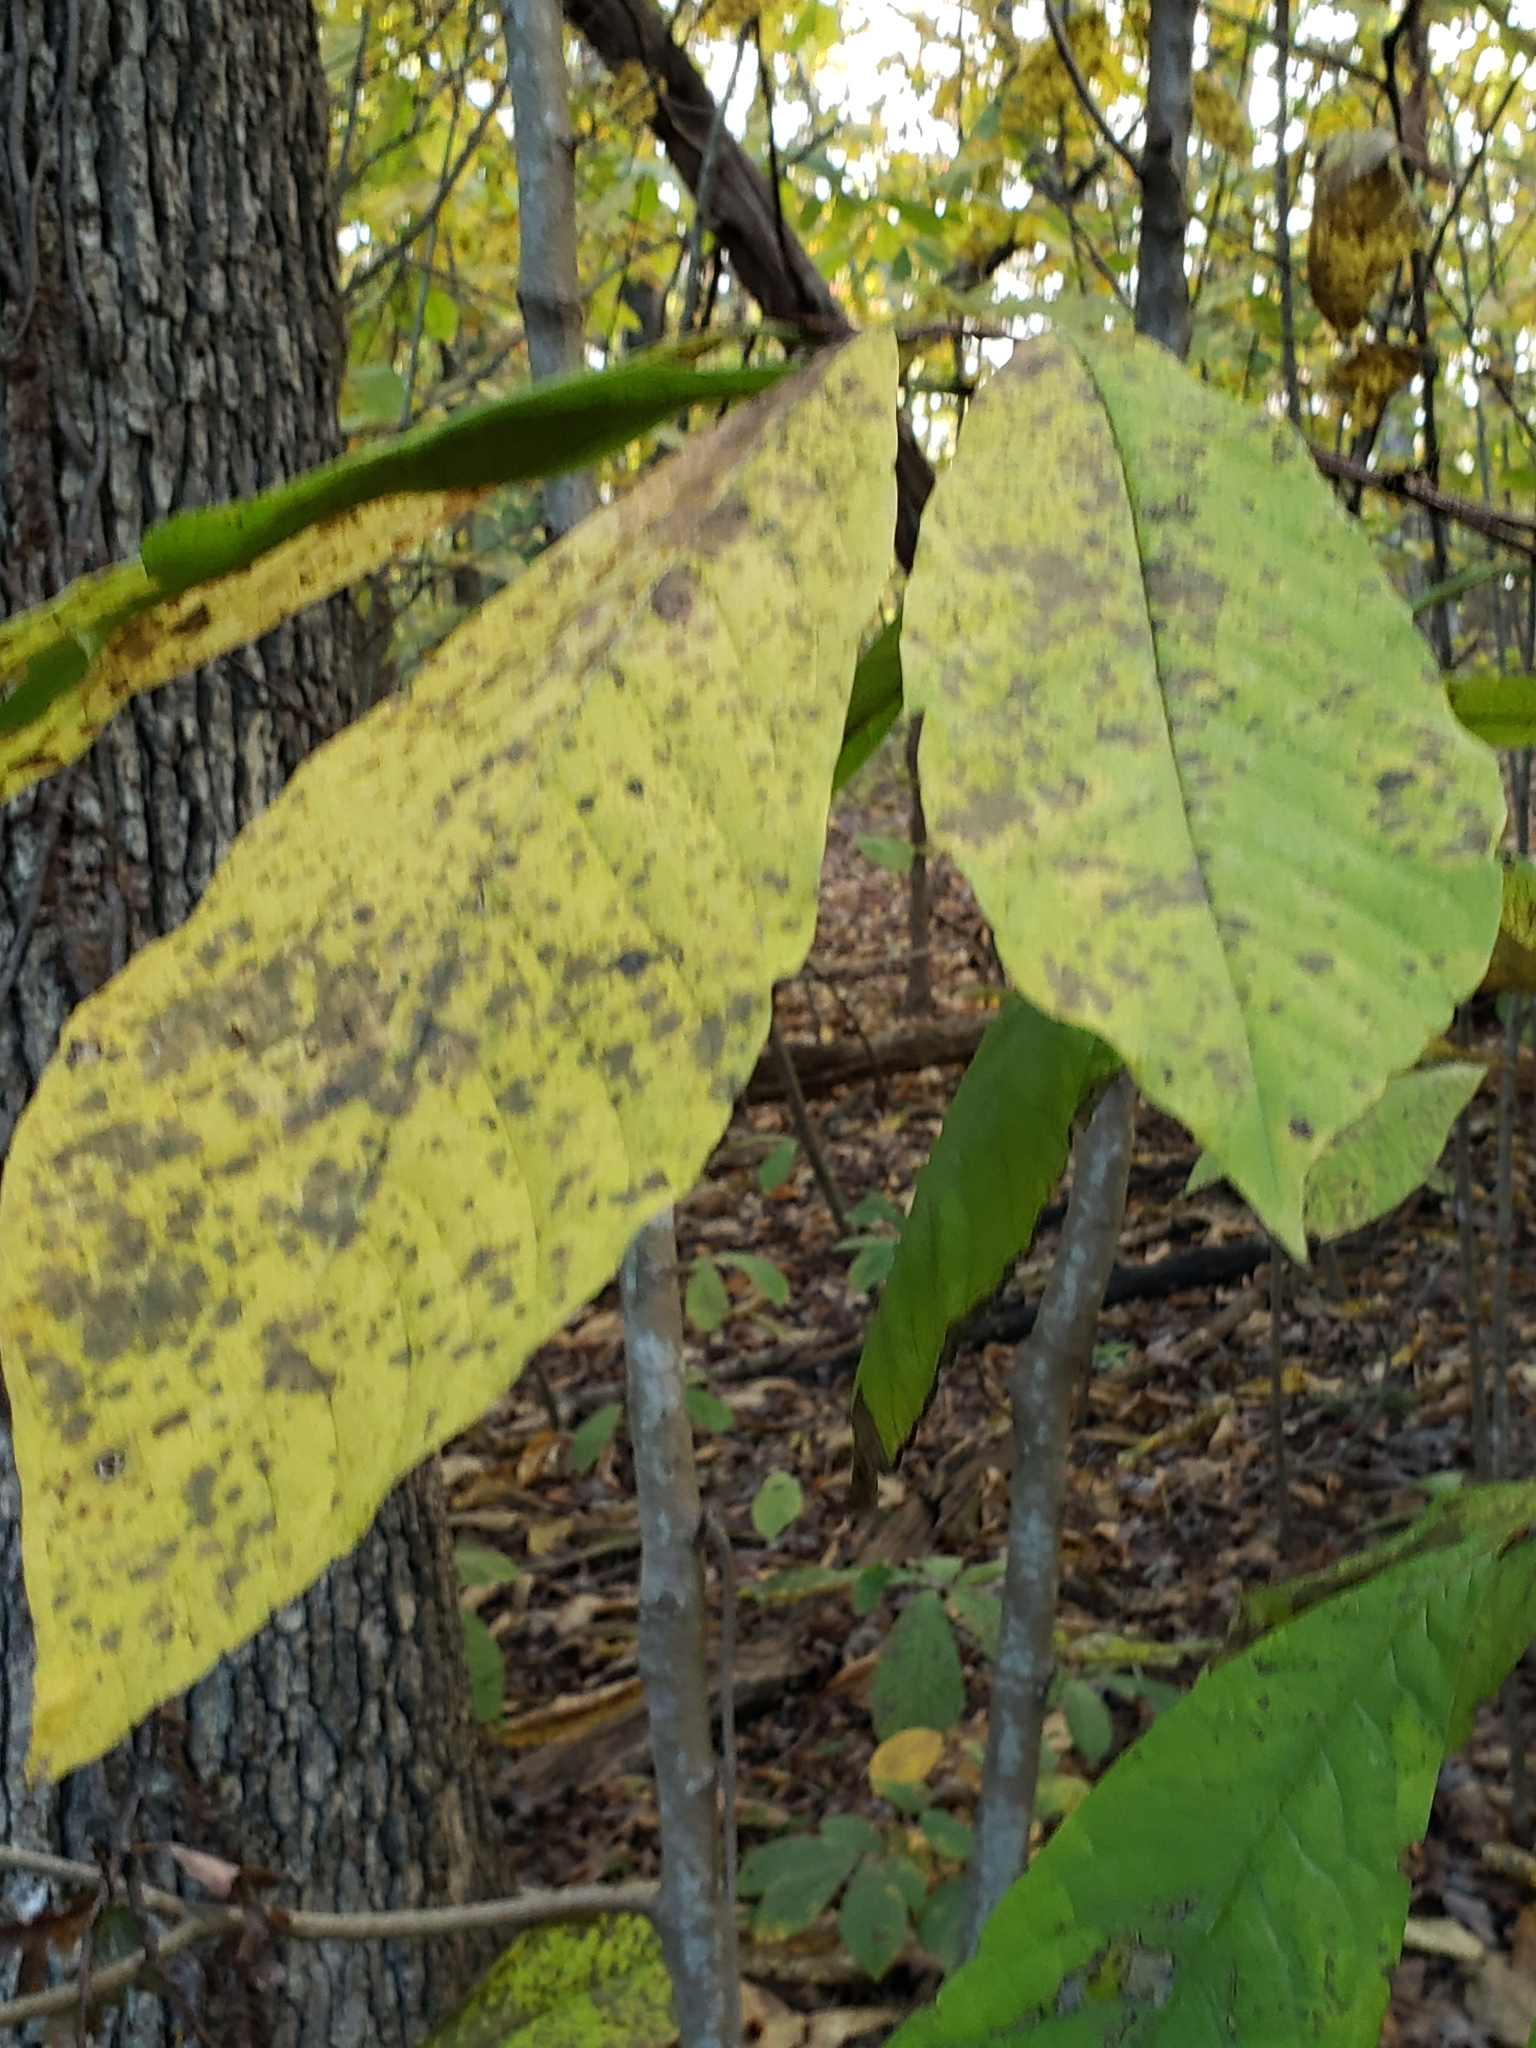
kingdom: Plantae
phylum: Tracheophyta
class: Magnoliopsida
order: Magnoliales
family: Annonaceae
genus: Asimina
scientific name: Asimina triloba
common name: Dog-banana
